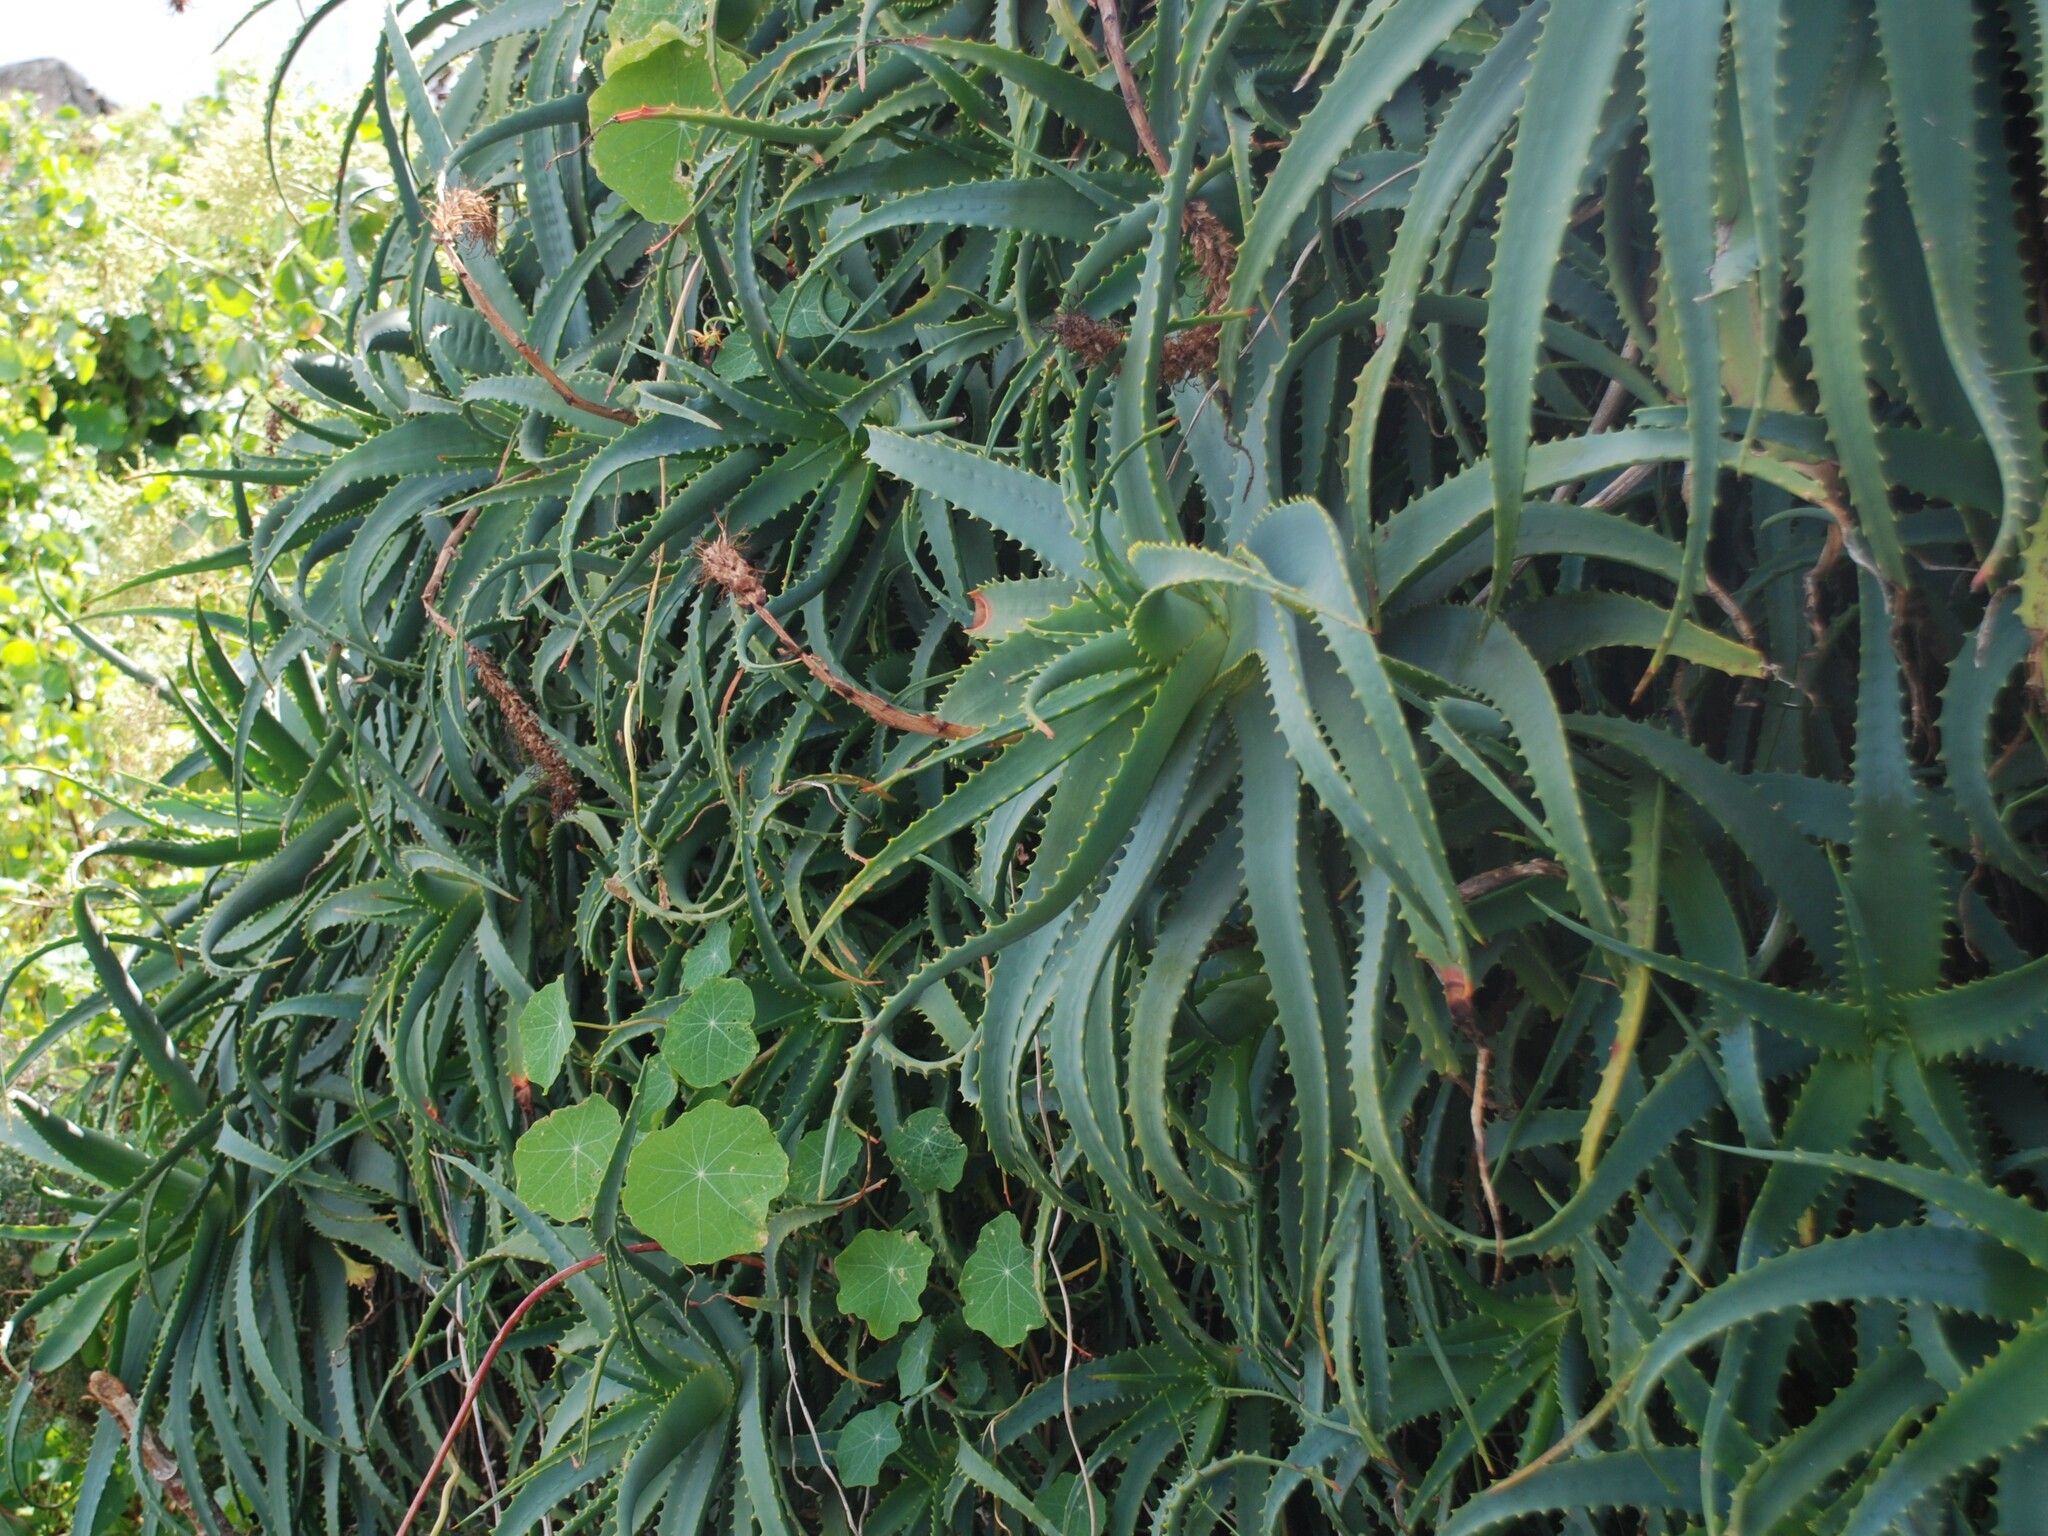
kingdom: Plantae
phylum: Tracheophyta
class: Liliopsida
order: Asparagales
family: Asphodelaceae
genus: Aloe
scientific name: Aloe arborescens
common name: Candelabra aloe
